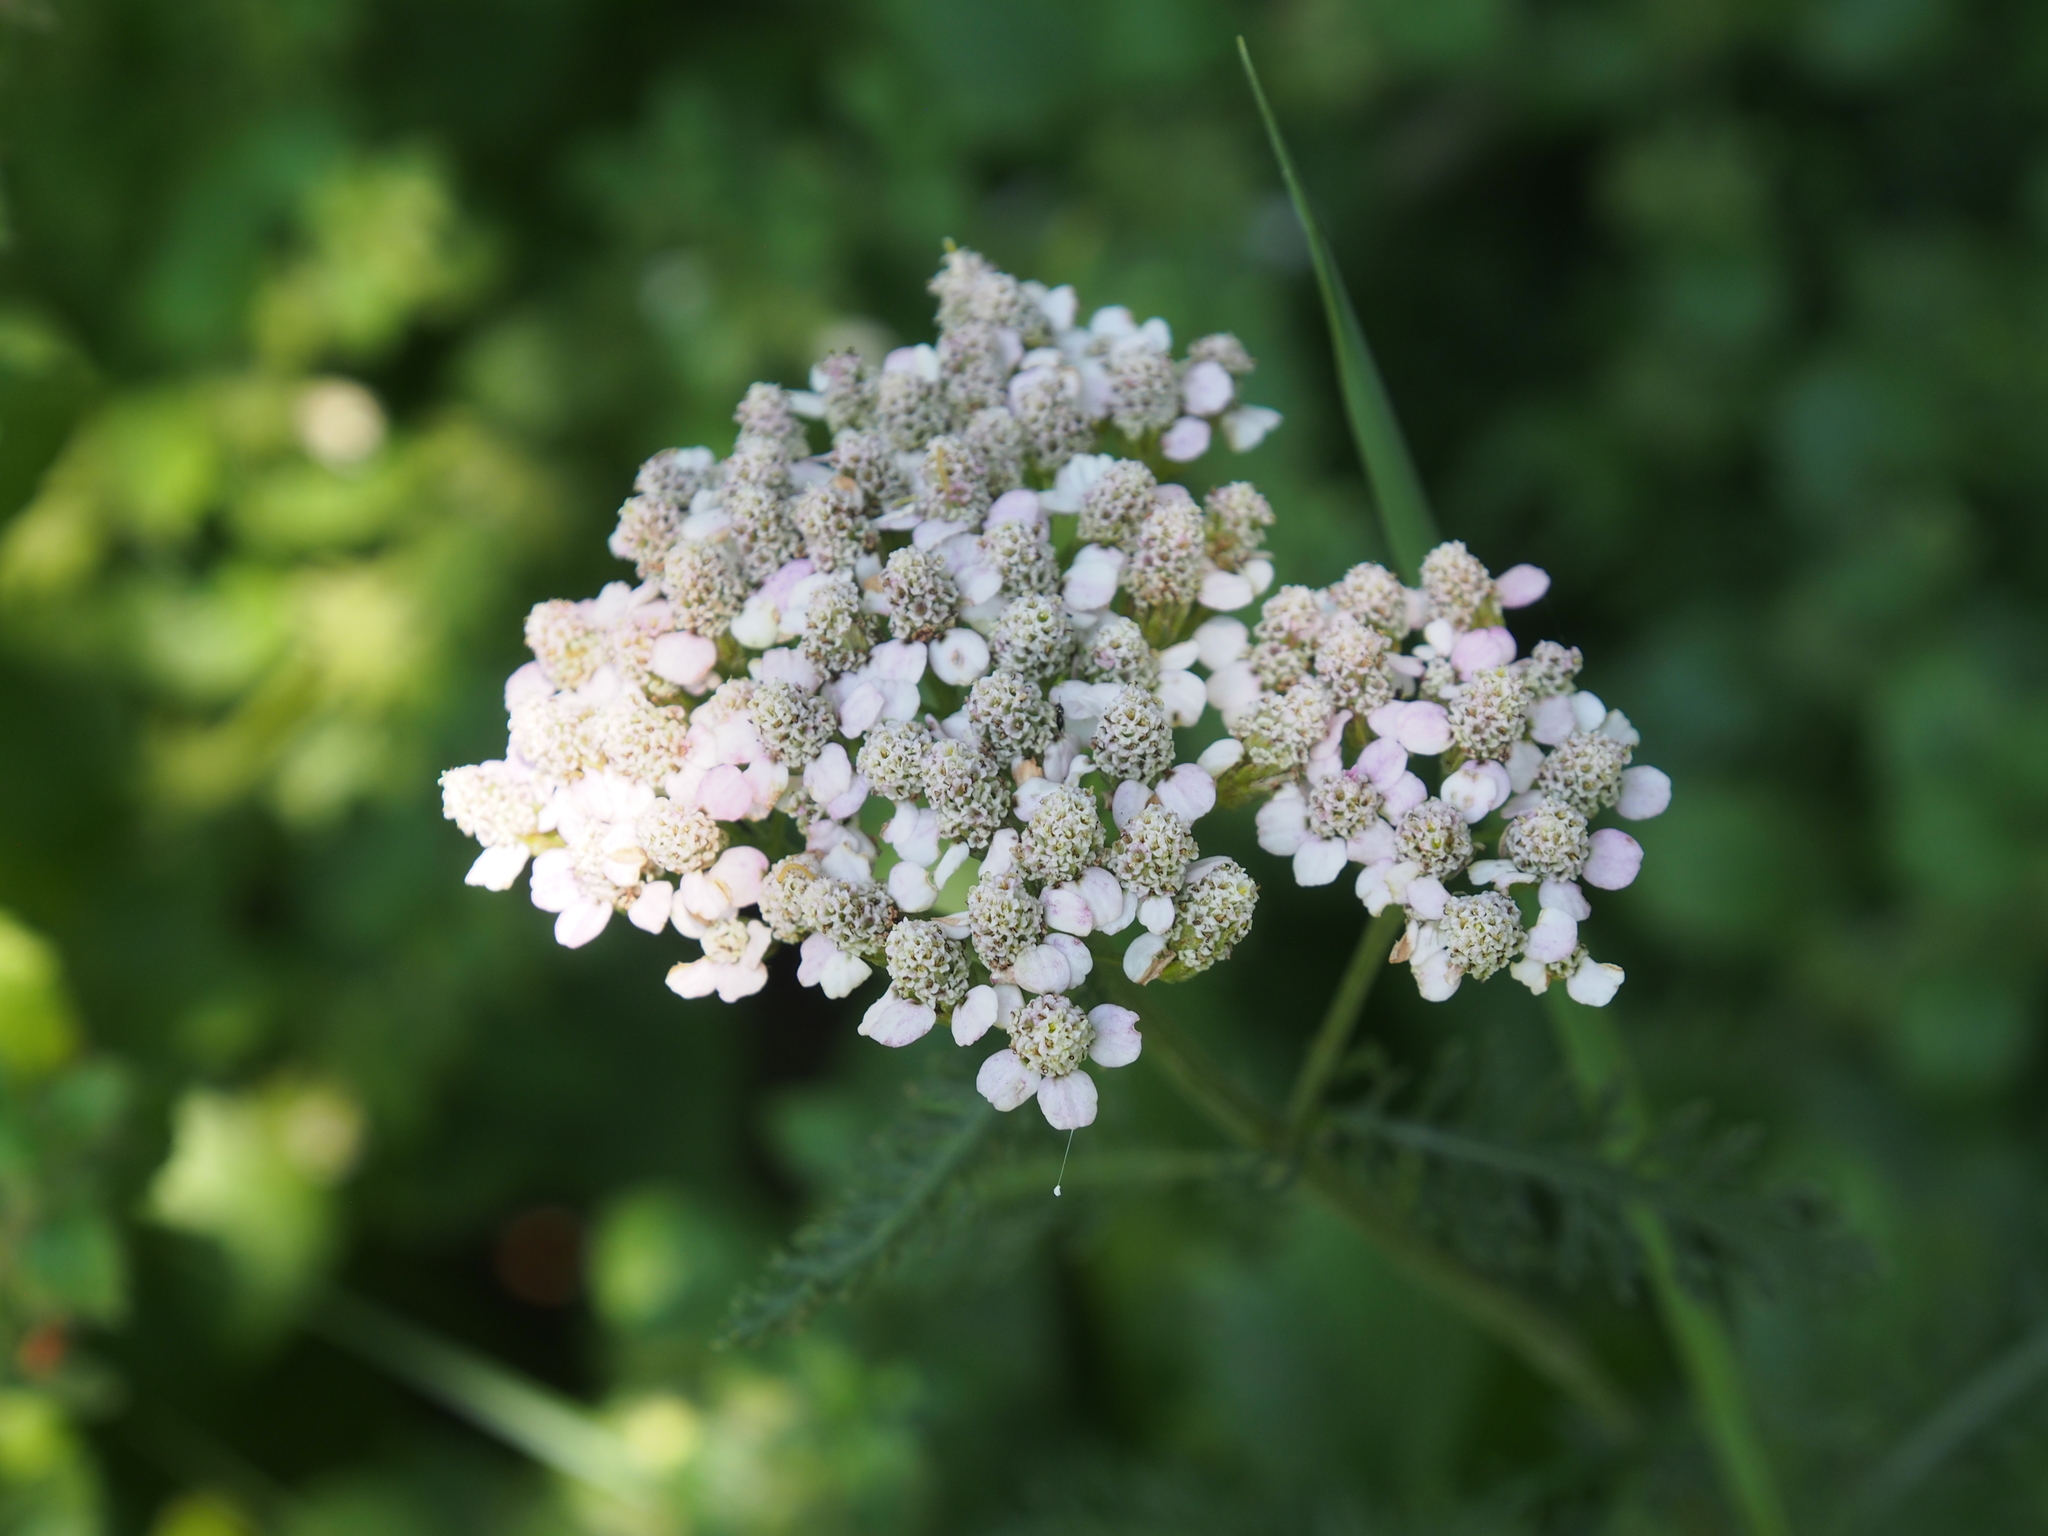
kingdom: Plantae
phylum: Tracheophyta
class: Magnoliopsida
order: Asterales
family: Asteraceae
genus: Achillea
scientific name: Achillea millefolium
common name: Yarrow
